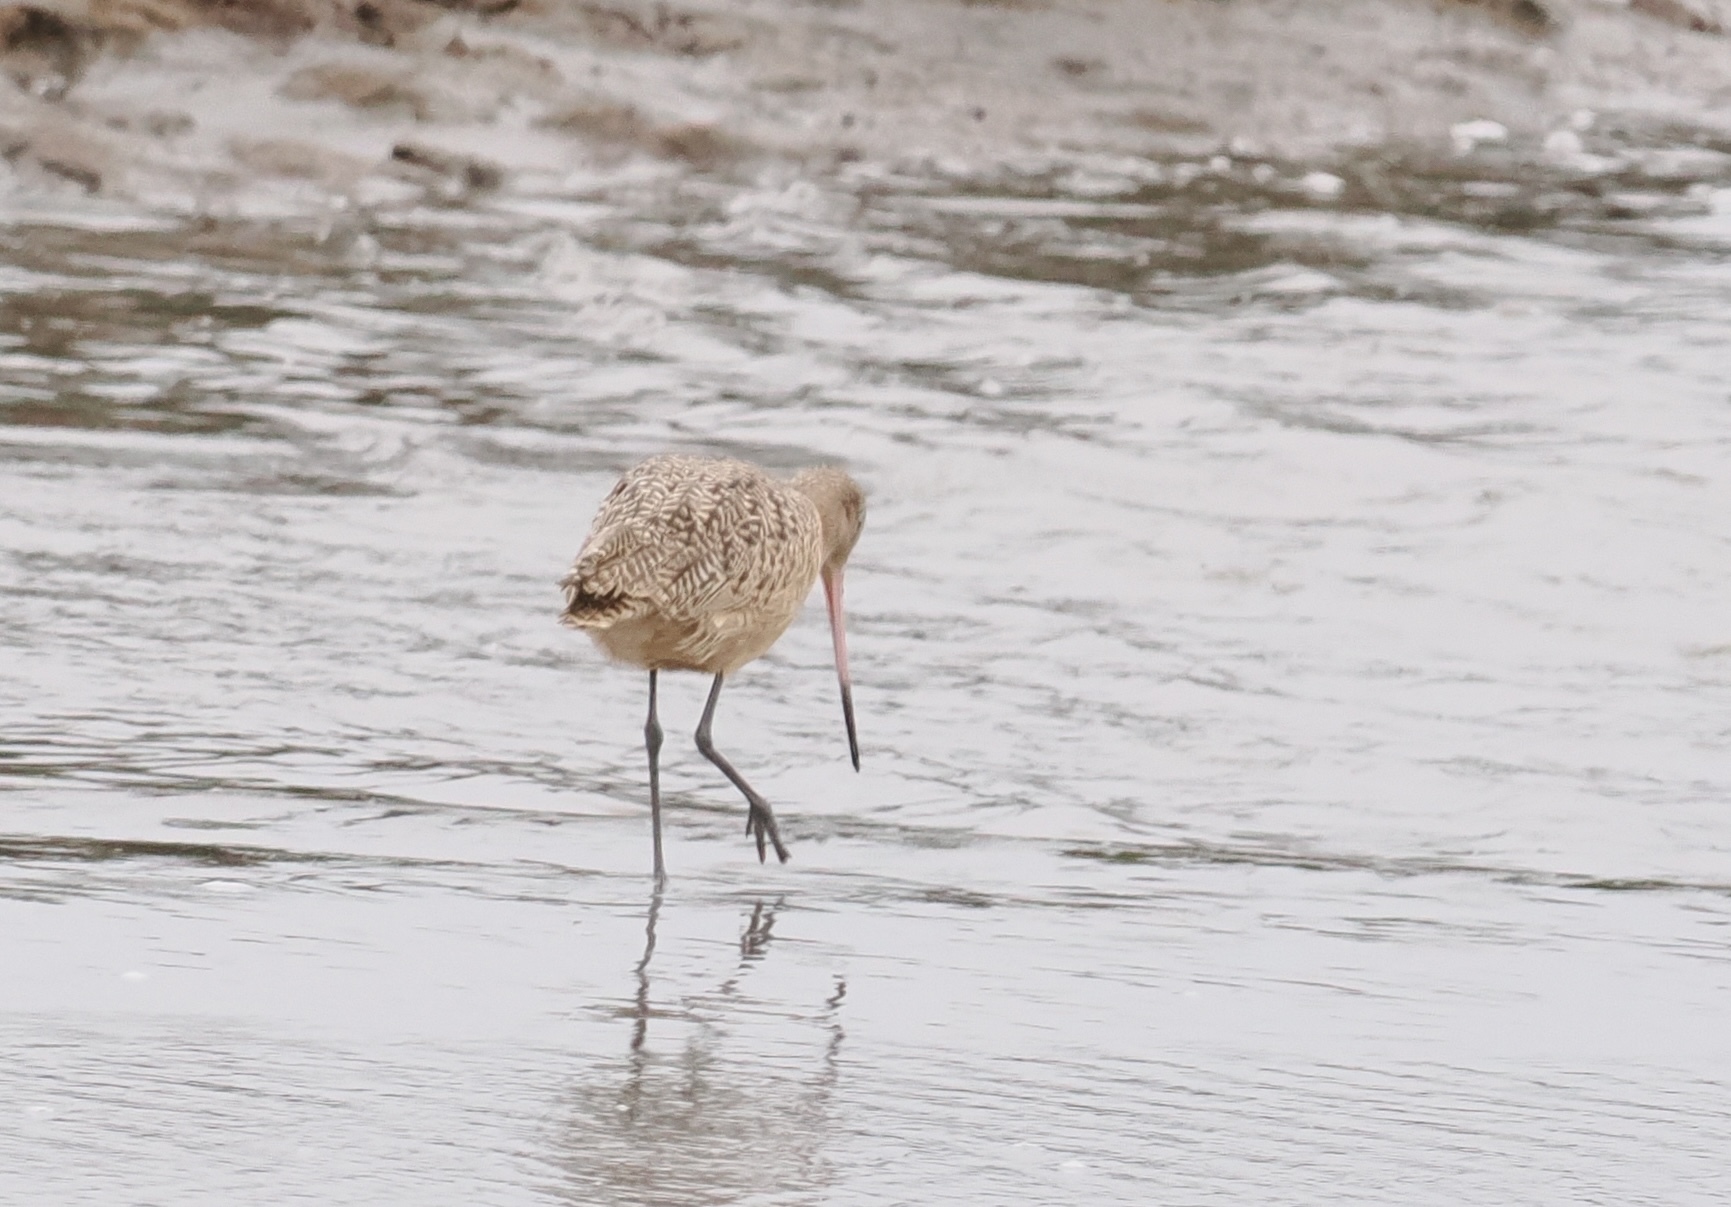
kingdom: Animalia
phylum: Chordata
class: Aves
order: Charadriiformes
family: Scolopacidae
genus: Limosa
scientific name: Limosa fedoa
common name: Marbled godwit
